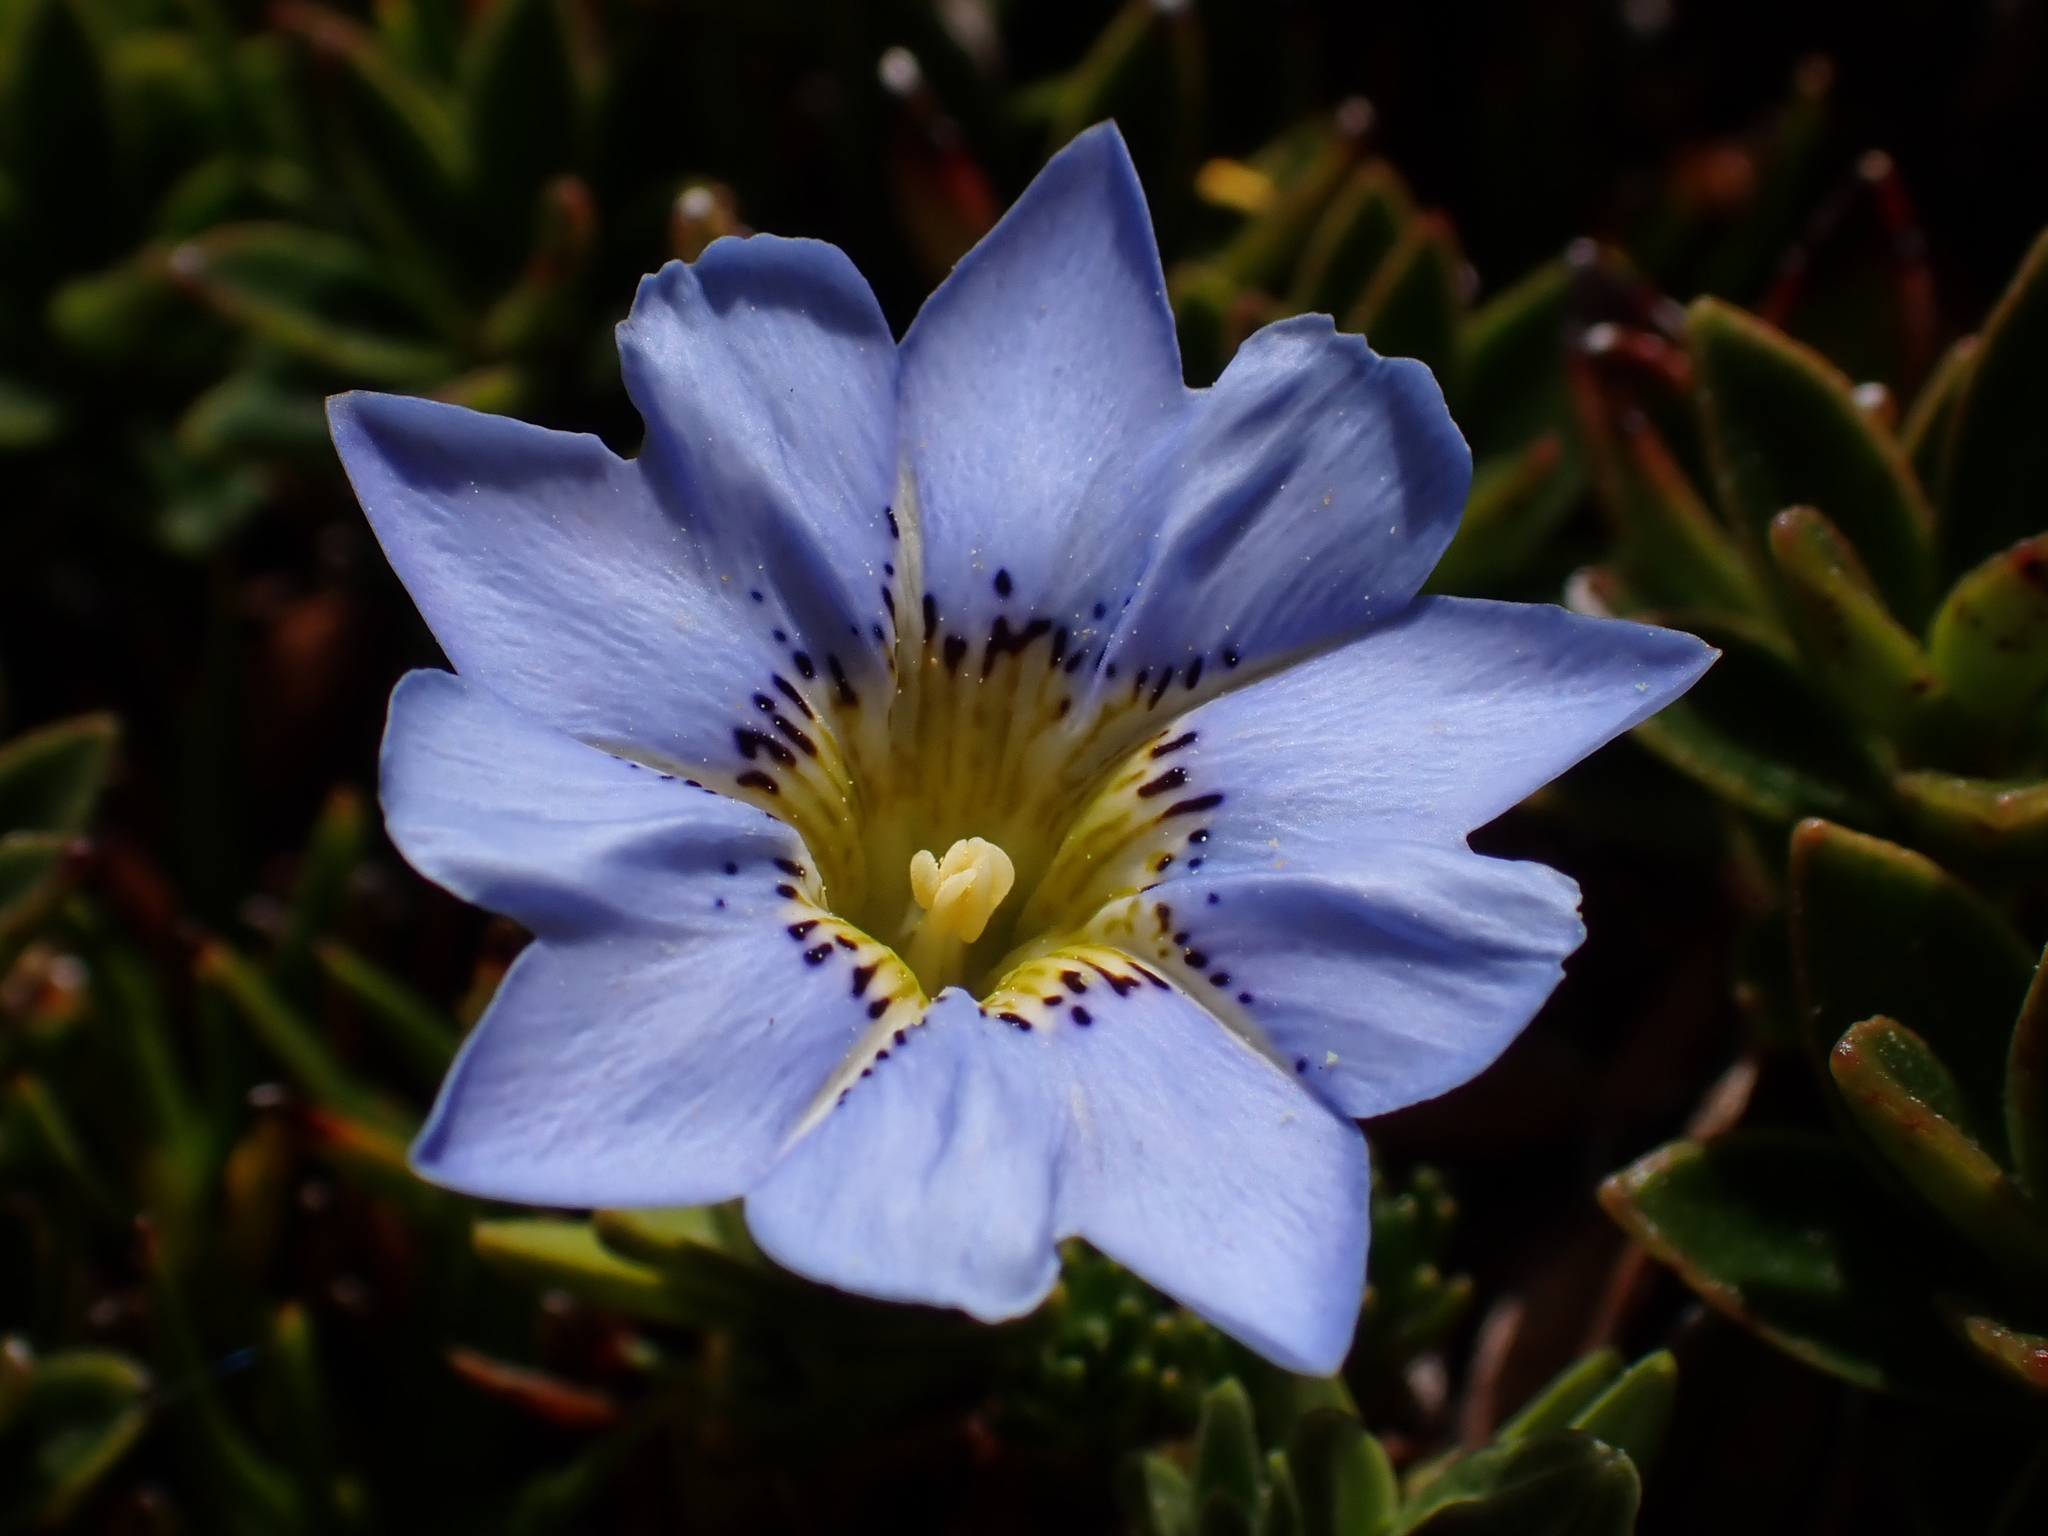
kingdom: Plantae
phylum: Tracheophyta
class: Magnoliopsida
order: Gentianales
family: Gentianaceae
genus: Gentiana
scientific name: Gentiana sedifolia
